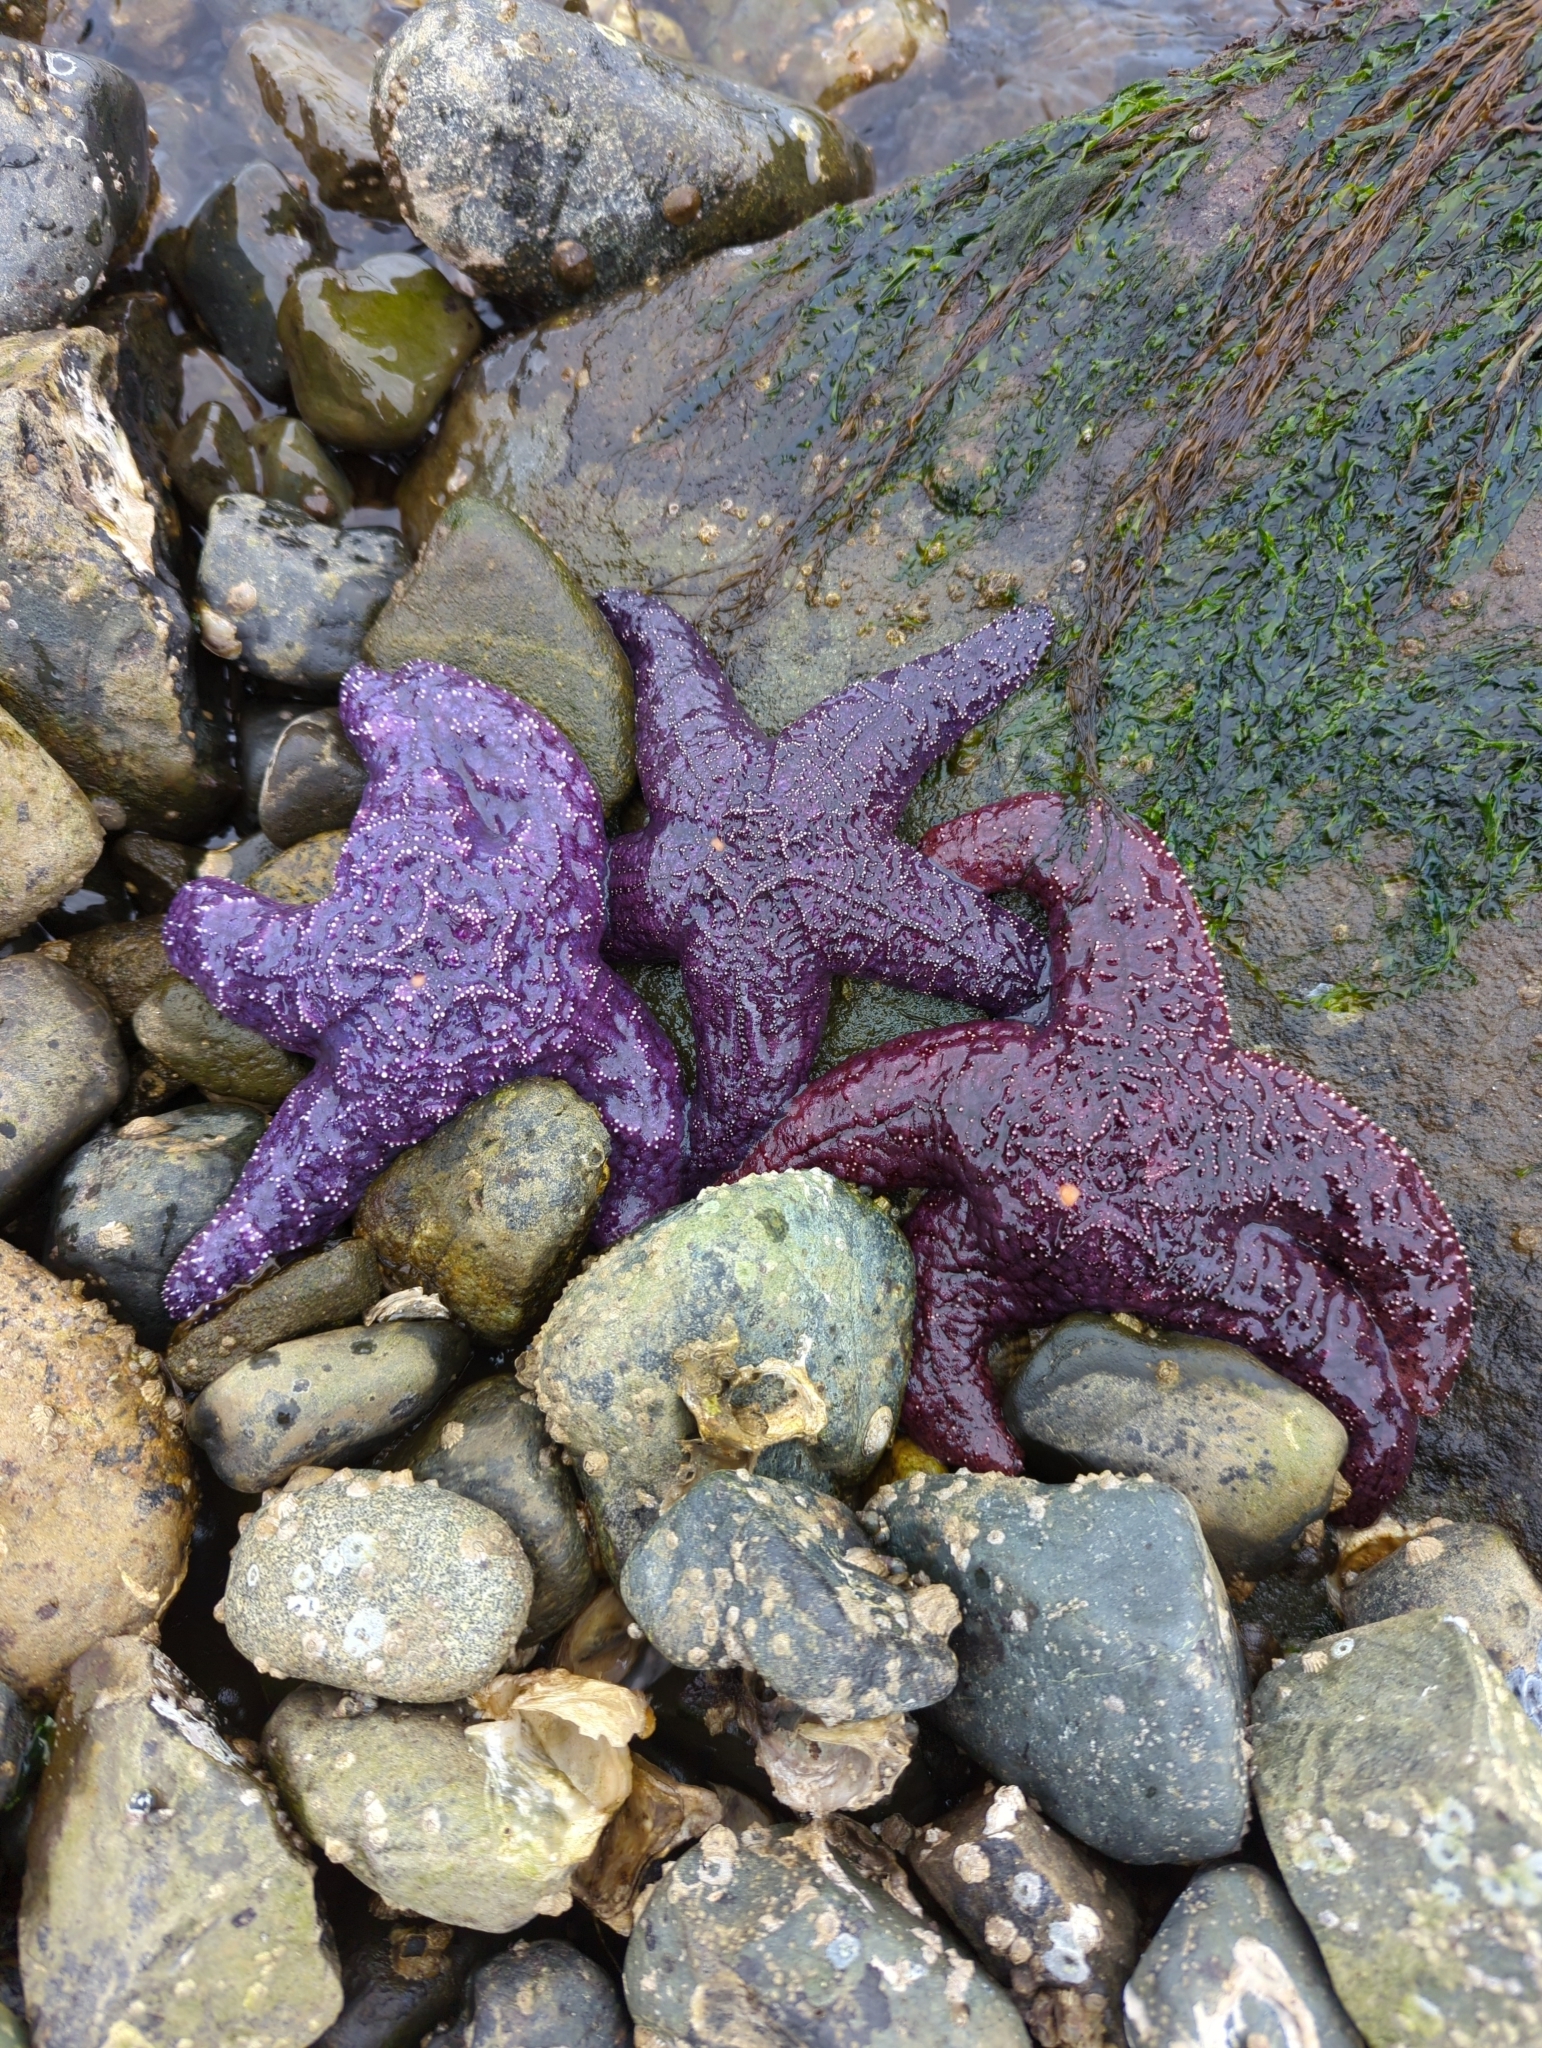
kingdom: Animalia
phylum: Echinodermata
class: Asteroidea
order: Forcipulatida
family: Asteriidae
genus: Pisaster
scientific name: Pisaster ochraceus
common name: Ochre stars
